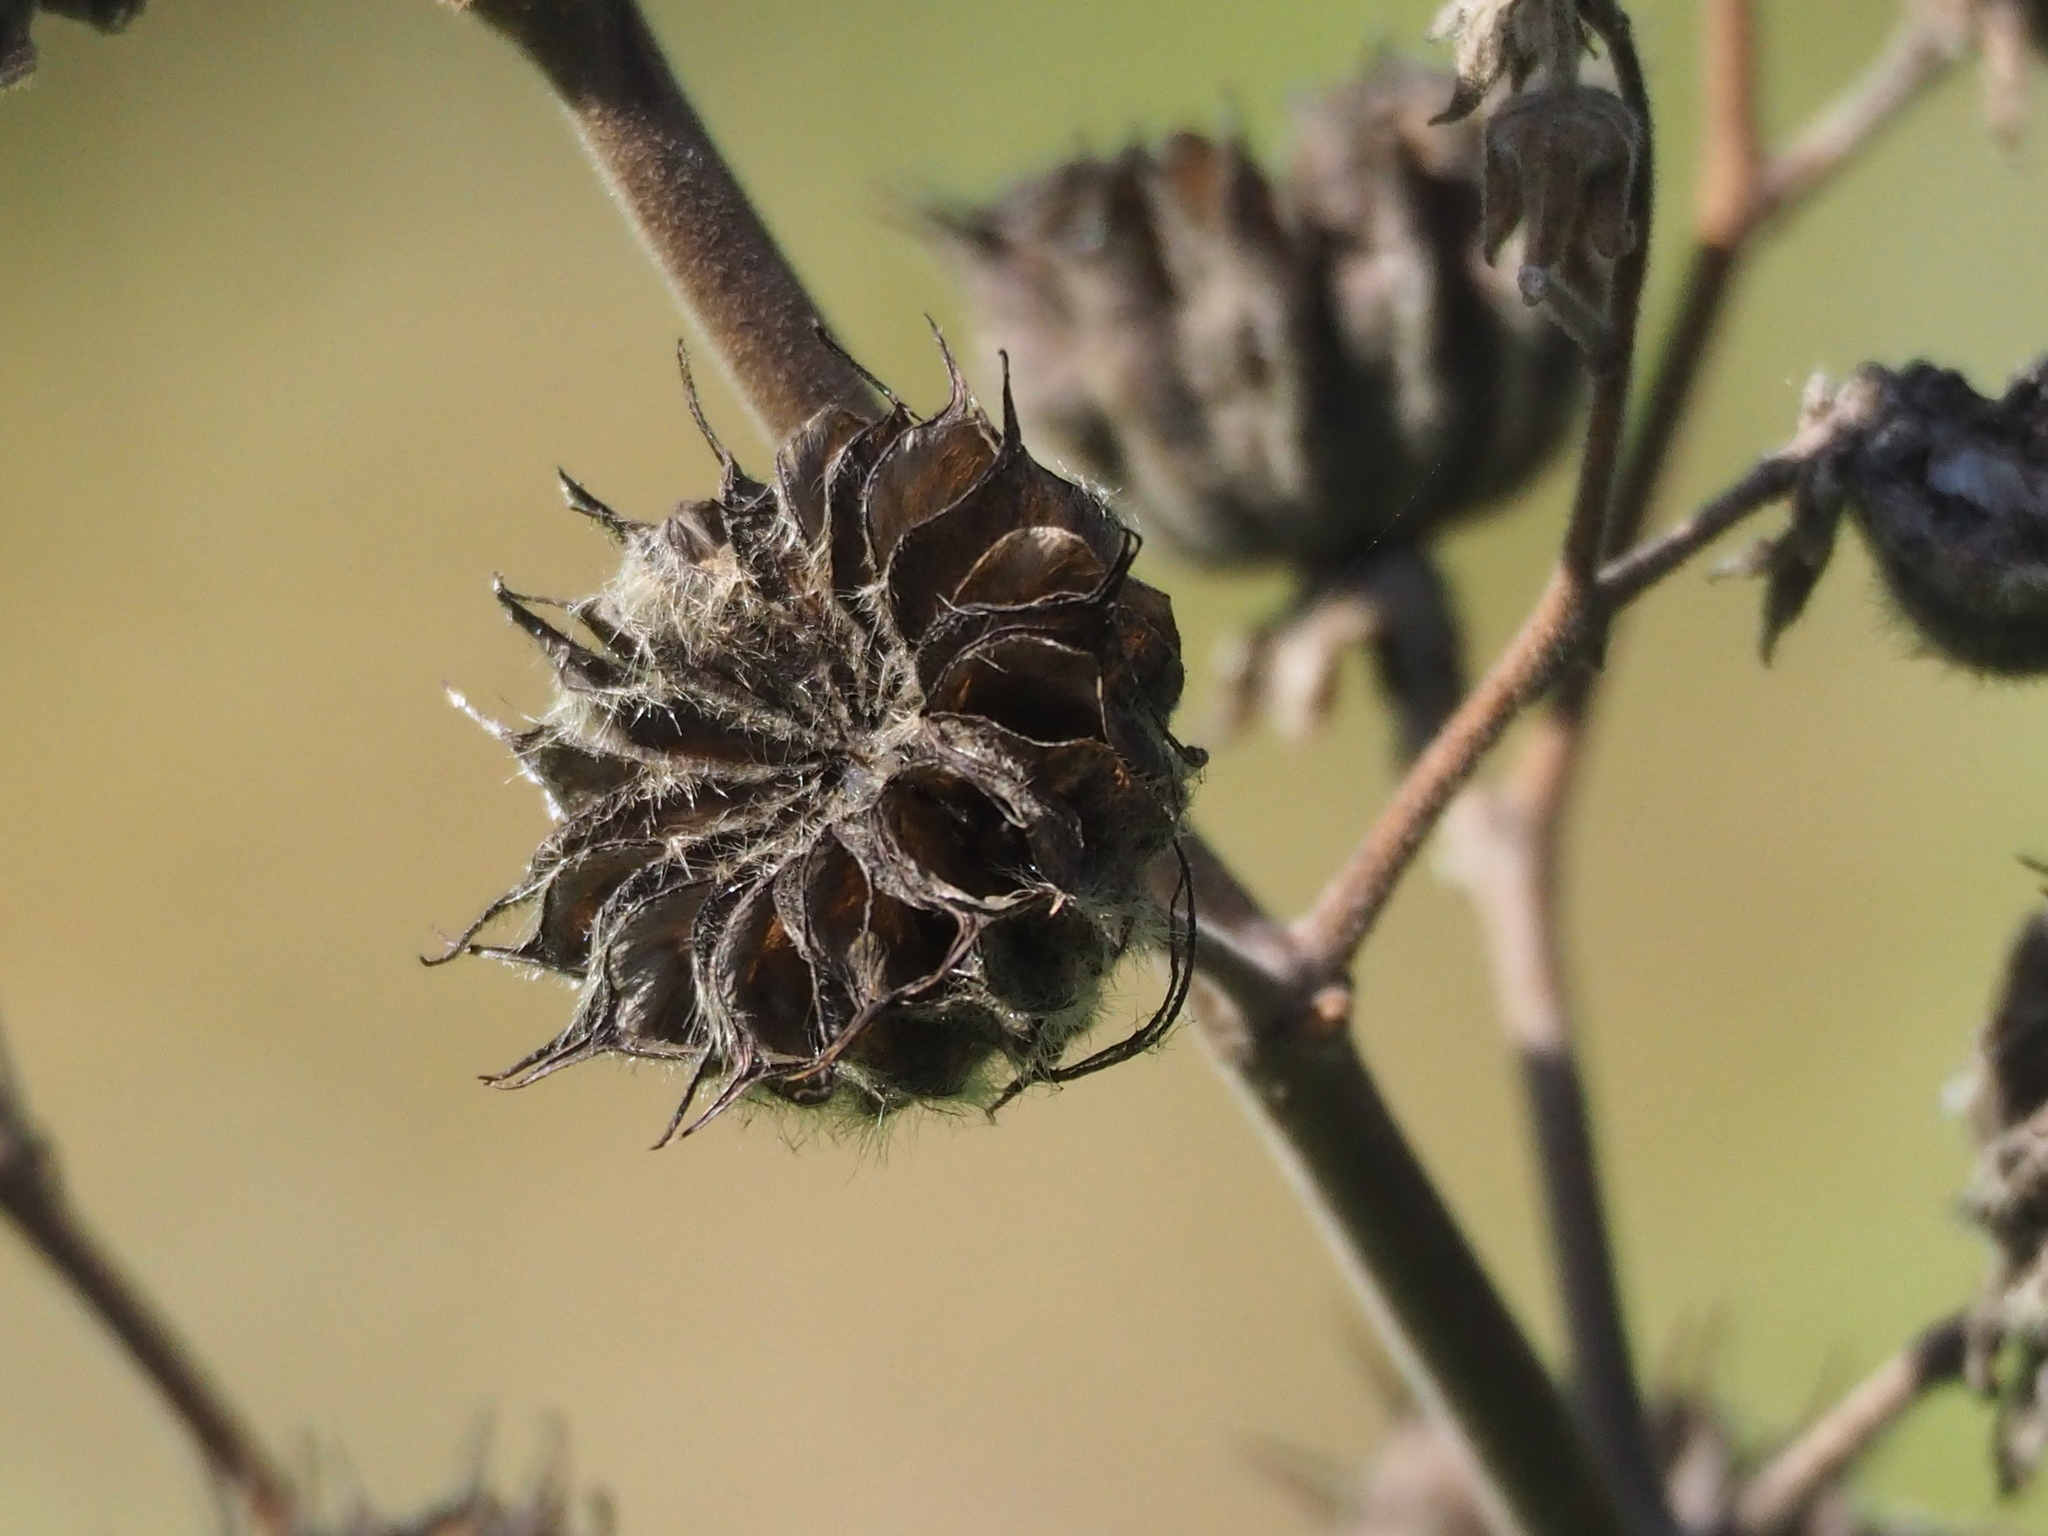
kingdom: Plantae
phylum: Tracheophyta
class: Magnoliopsida
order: Malvales
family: Malvaceae
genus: Abutilon
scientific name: Abutilon theophrasti
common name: Velvetleaf
